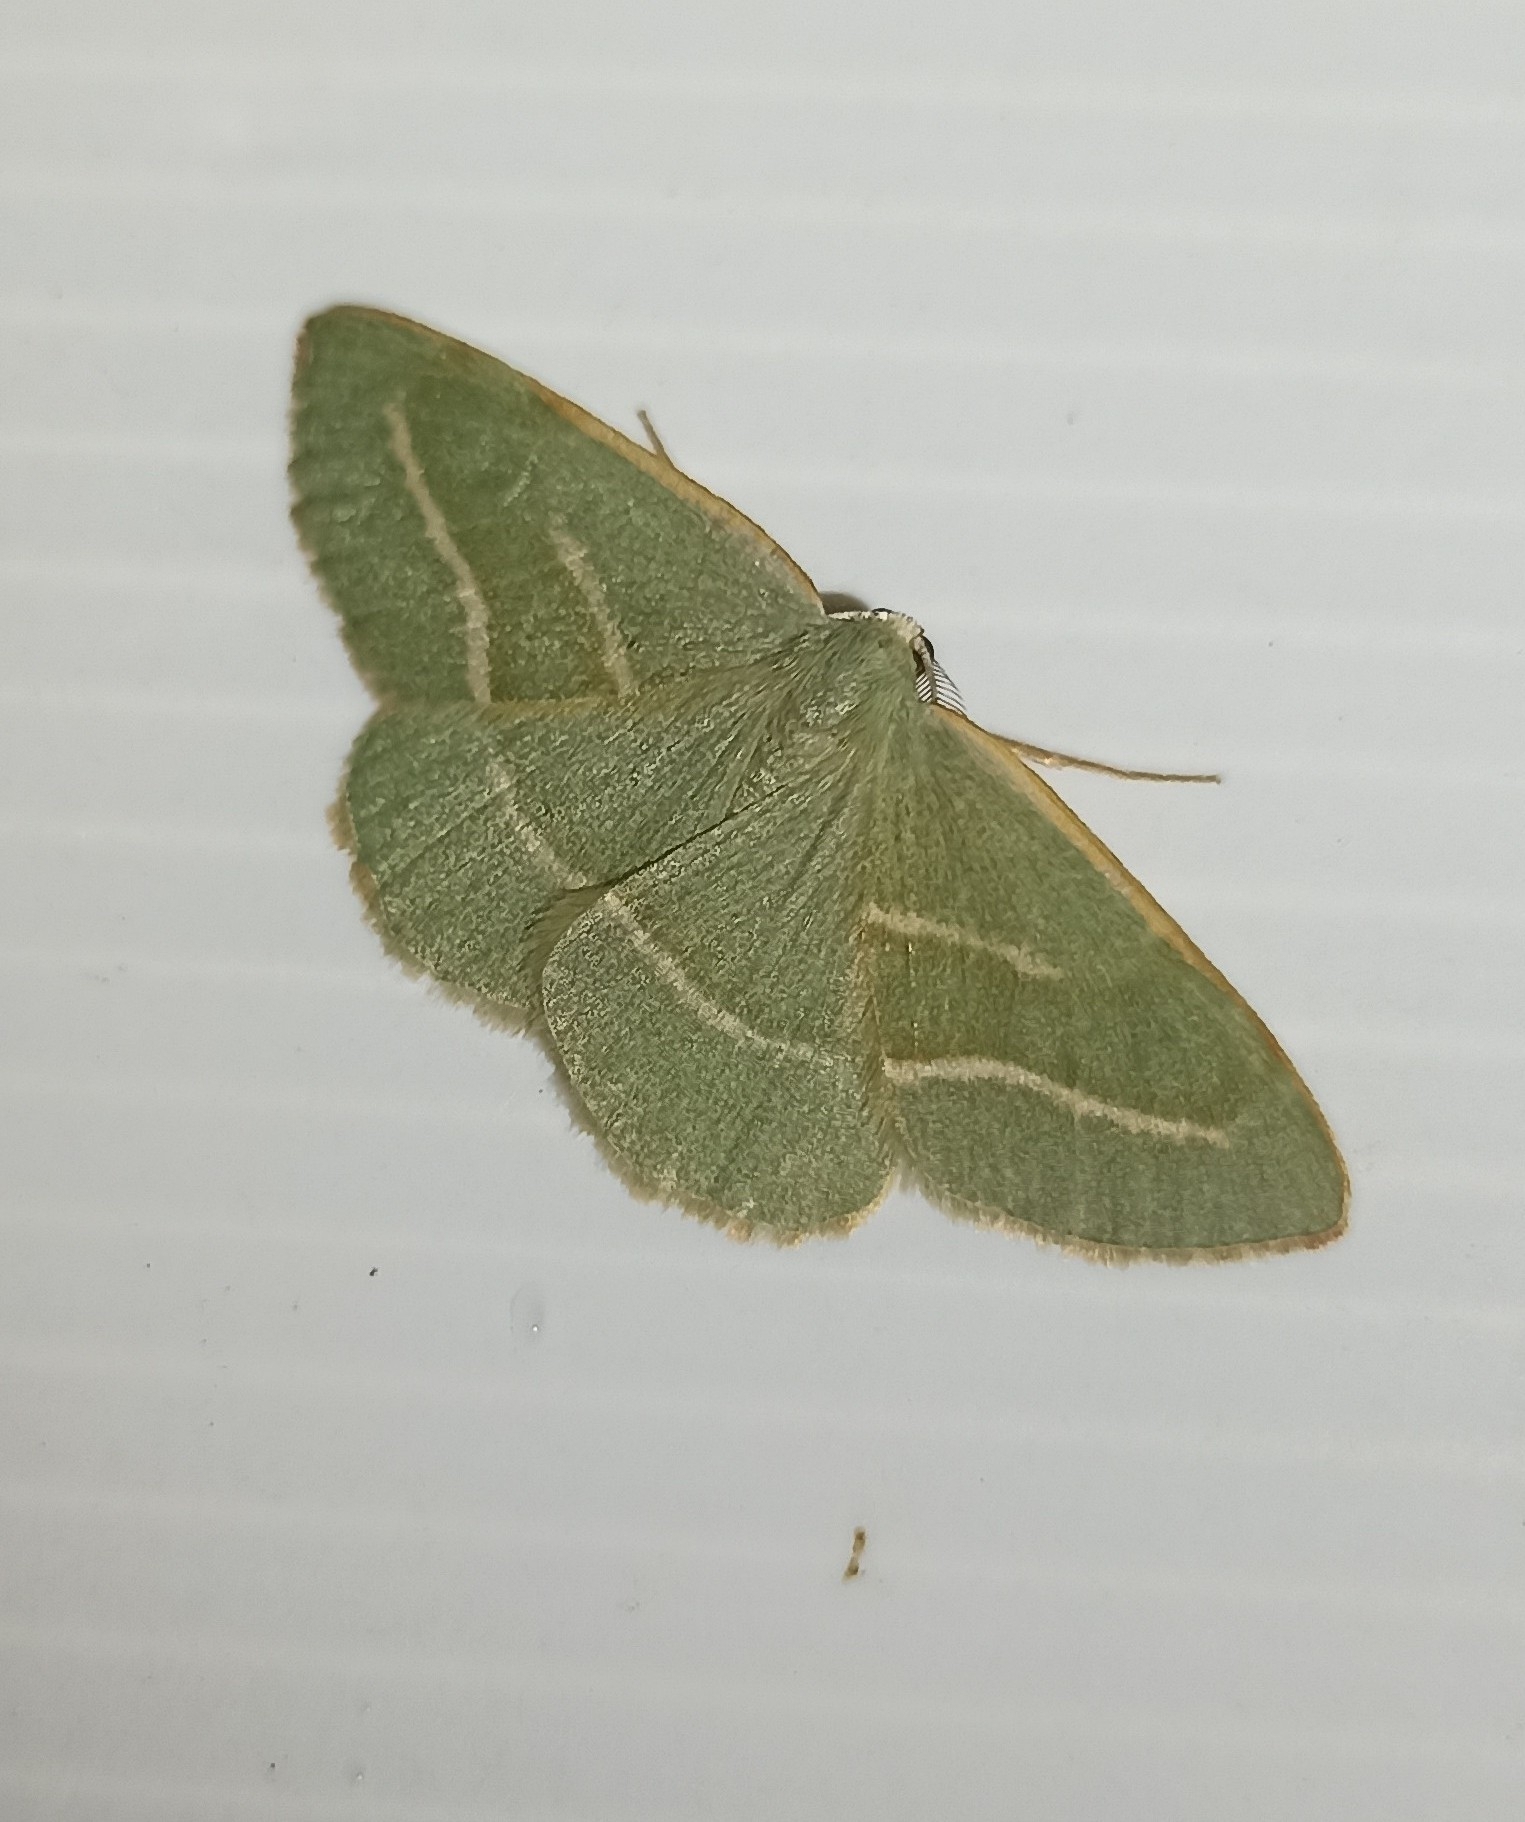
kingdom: Animalia
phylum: Arthropoda
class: Insecta
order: Lepidoptera
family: Geometridae
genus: Hylaea
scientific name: Hylaea fasciaria
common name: Barred red
